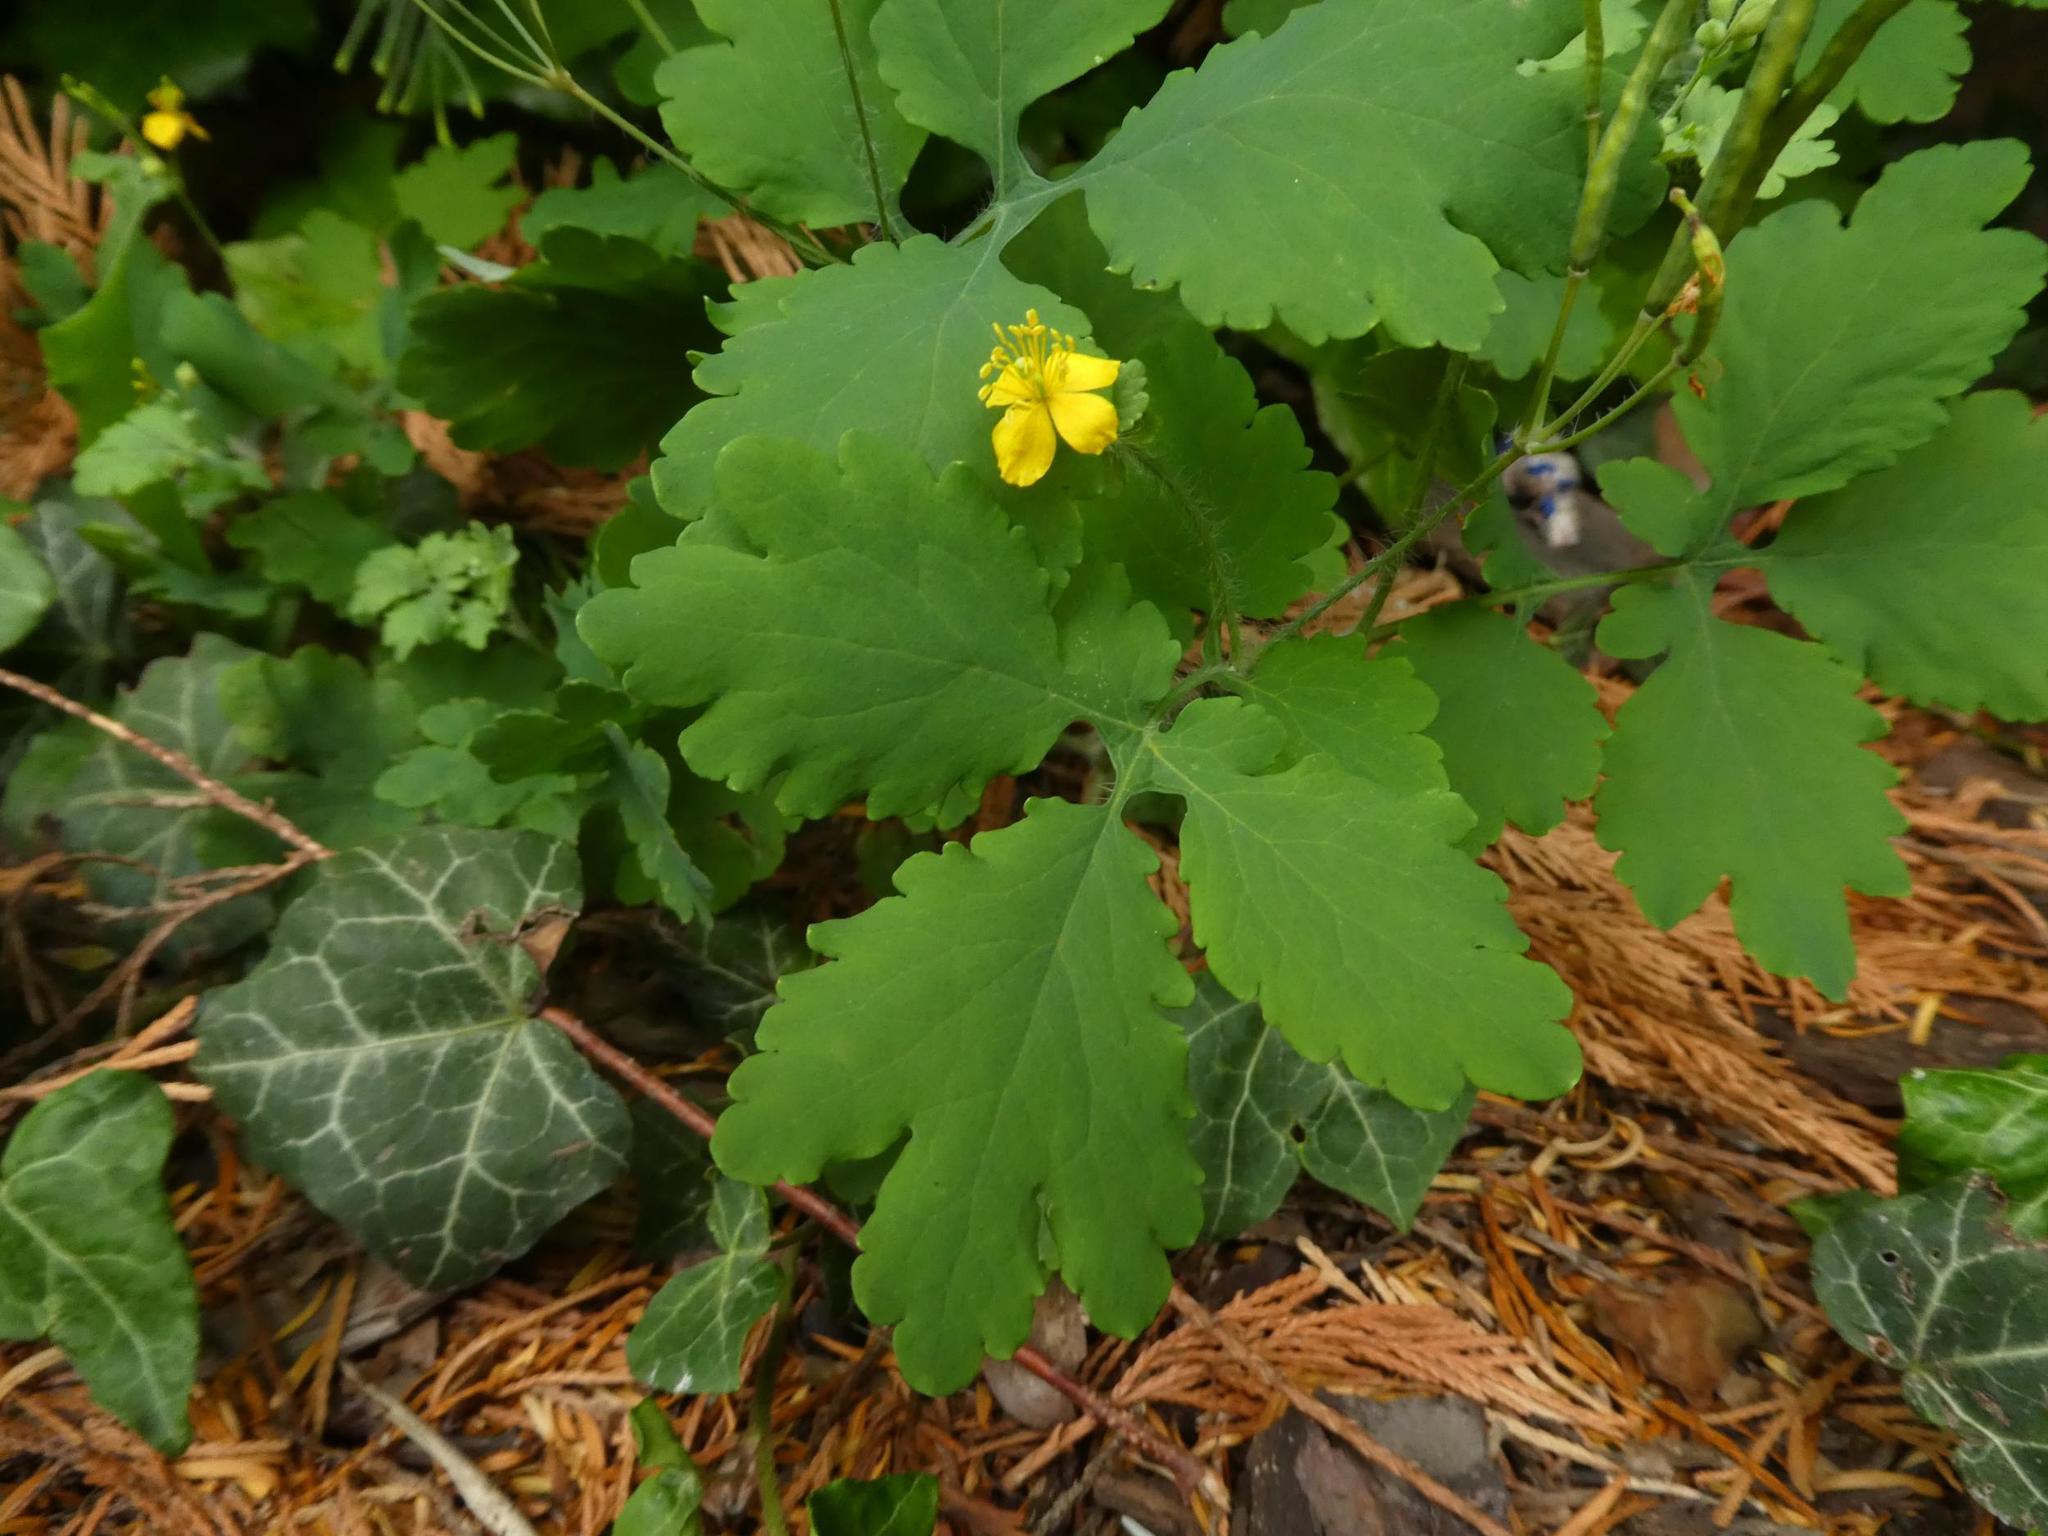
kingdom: Plantae
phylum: Tracheophyta
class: Magnoliopsida
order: Ranunculales
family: Papaveraceae
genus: Chelidonium
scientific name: Chelidonium majus
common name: Greater celandine
